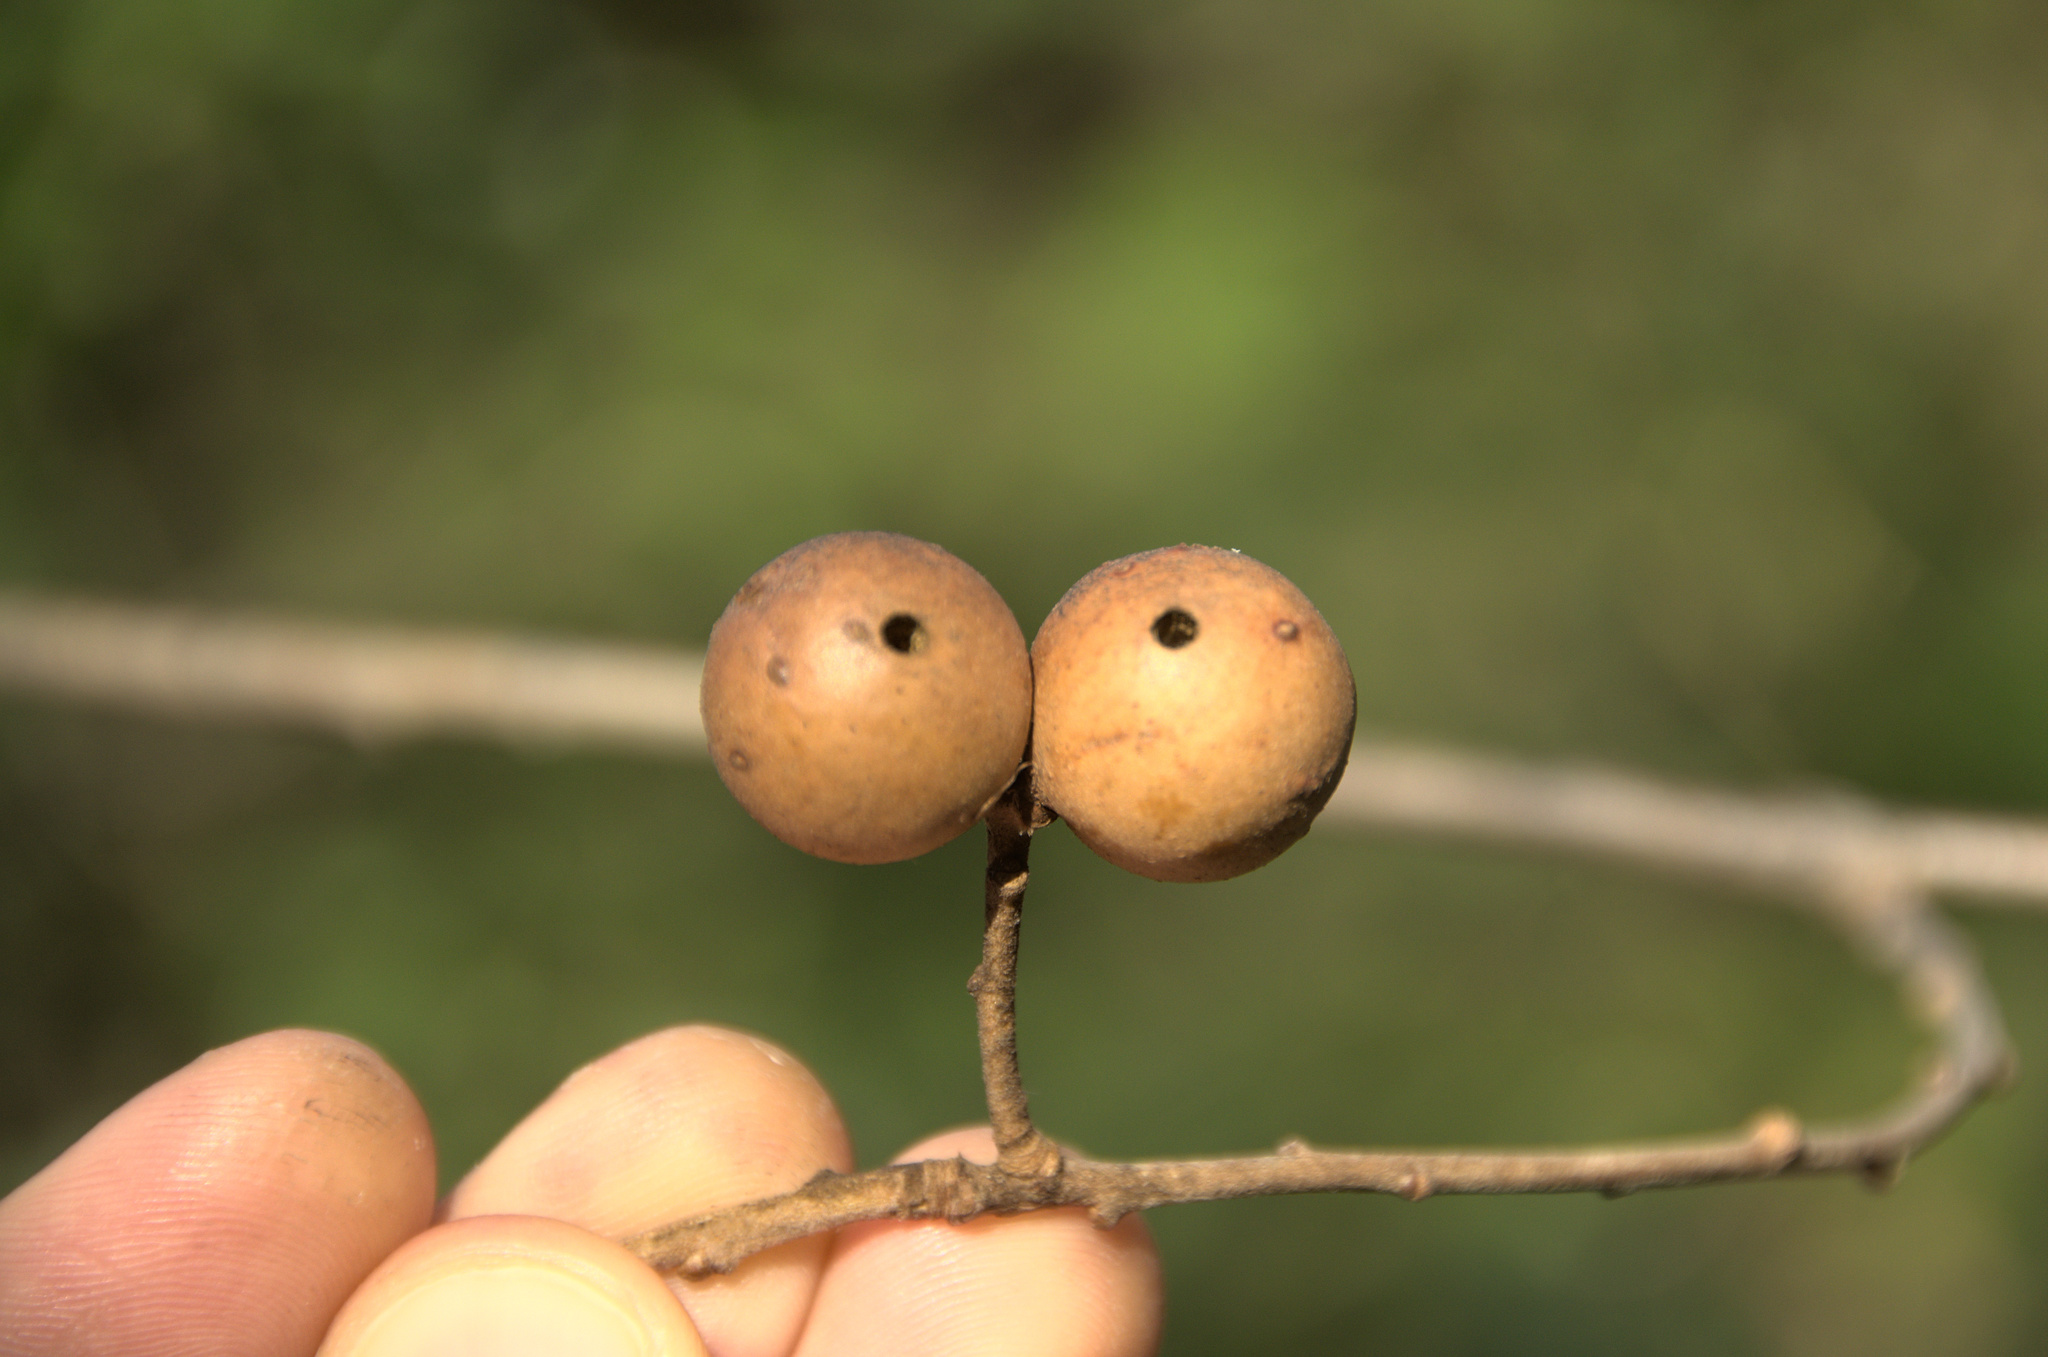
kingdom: Animalia
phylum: Arthropoda
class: Insecta
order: Hymenoptera
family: Cynipidae
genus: Andricus
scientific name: Andricus kollari
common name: Marble gall
